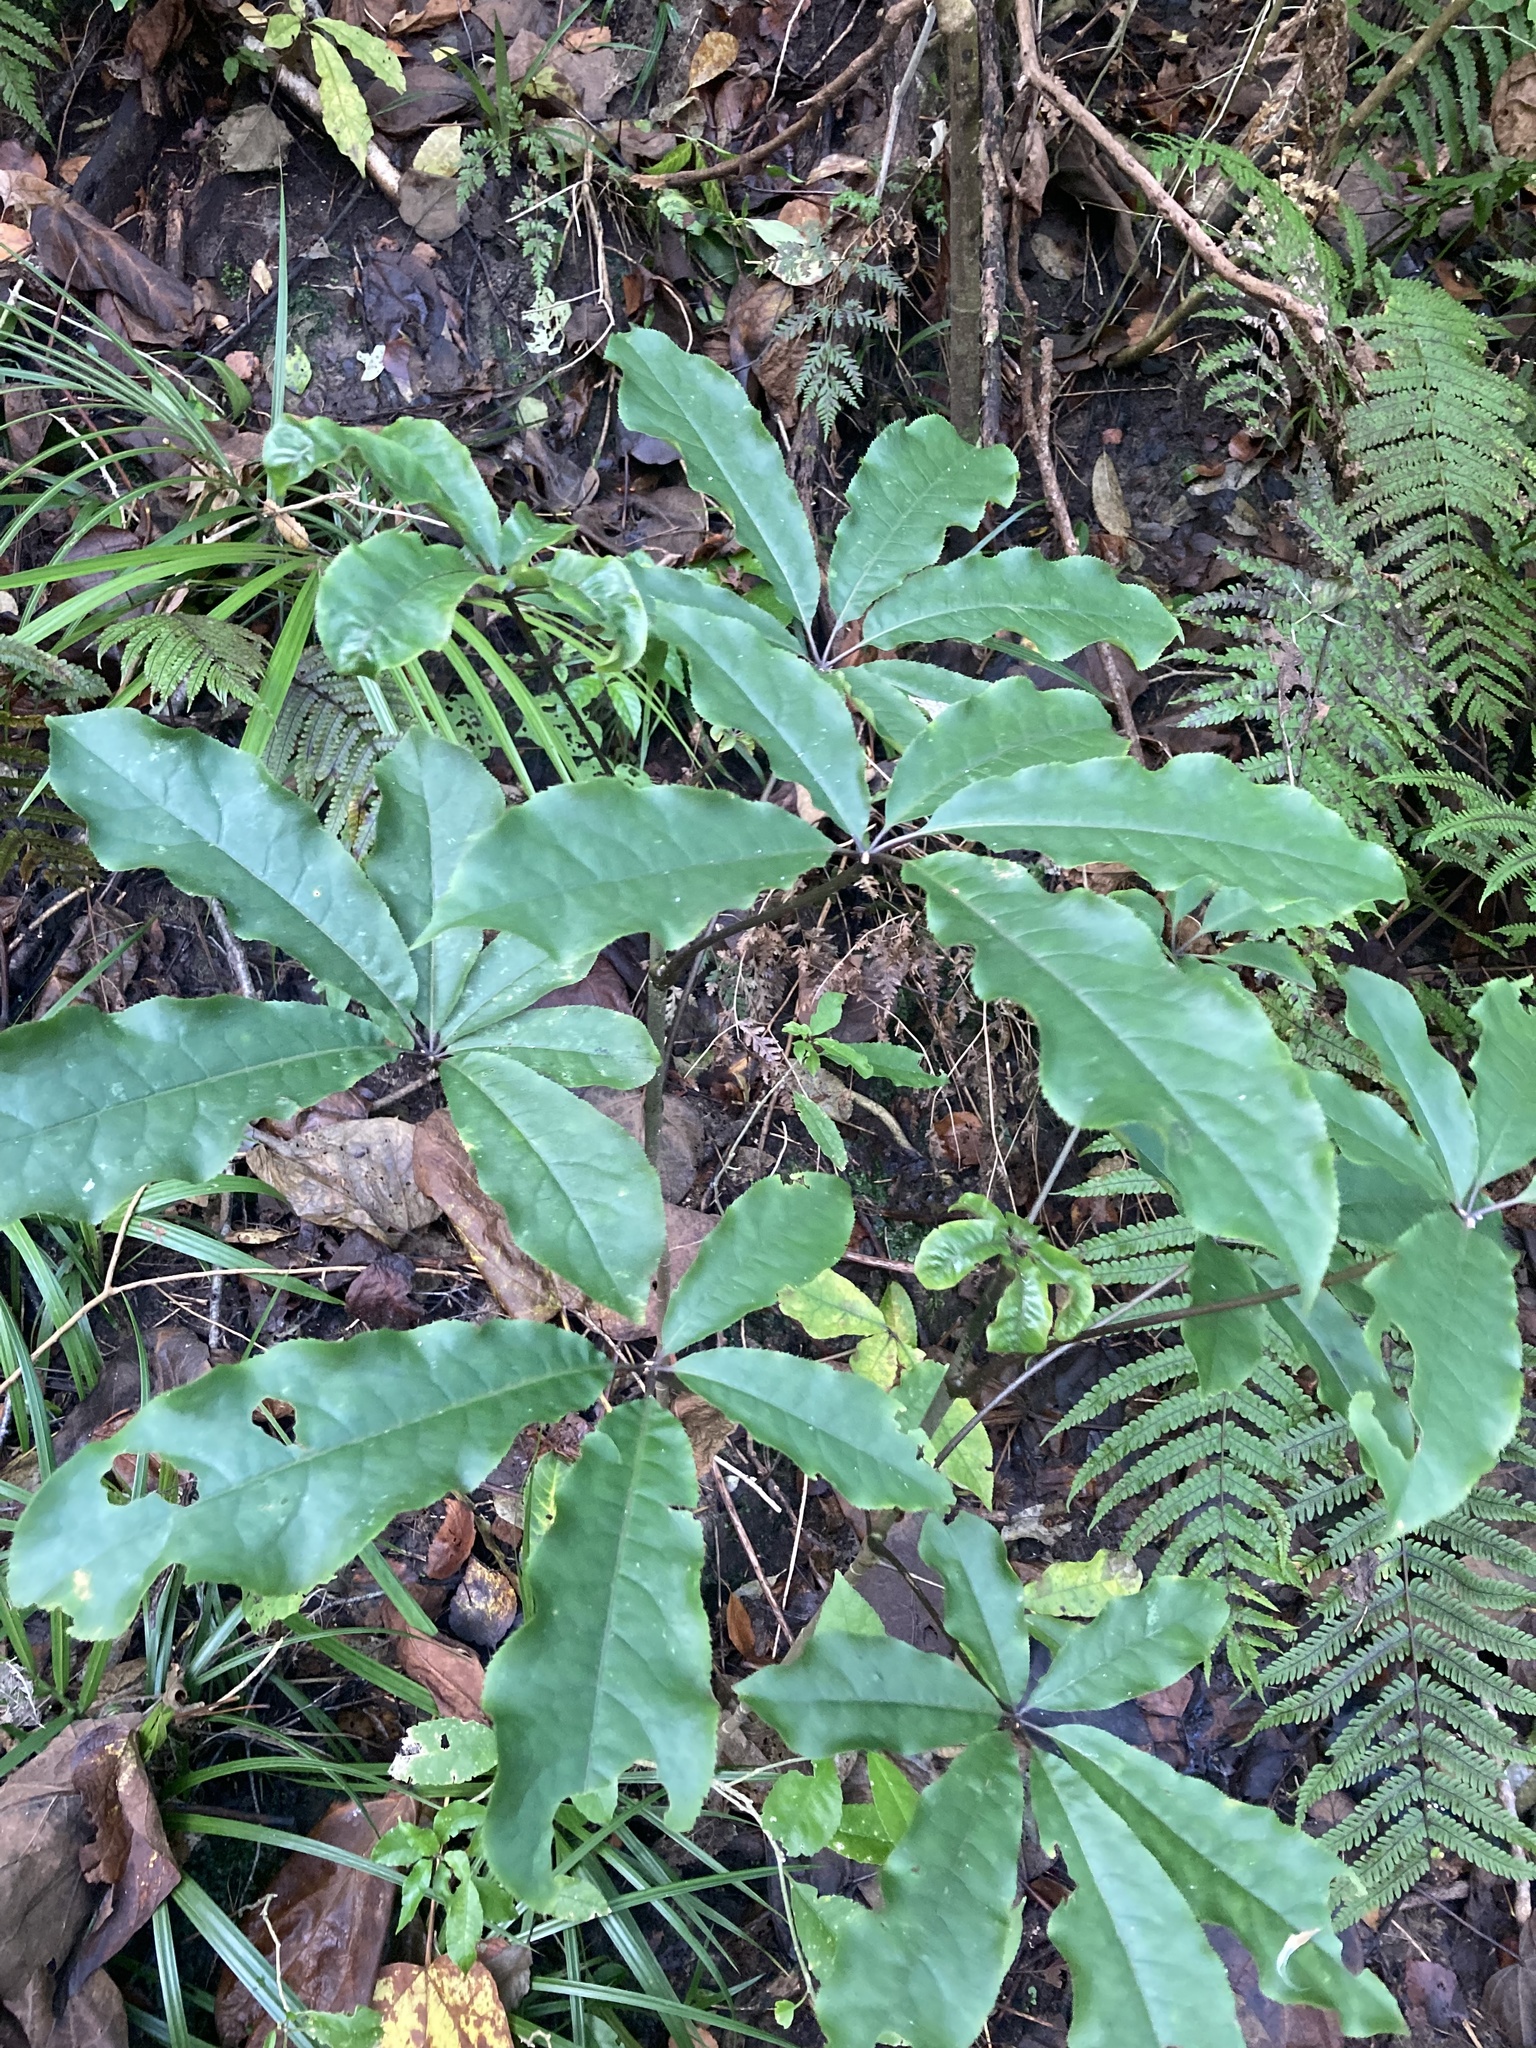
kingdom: Plantae
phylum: Tracheophyta
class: Magnoliopsida
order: Apiales
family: Araliaceae
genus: Schefflera
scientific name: Schefflera digitata
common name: Pate
